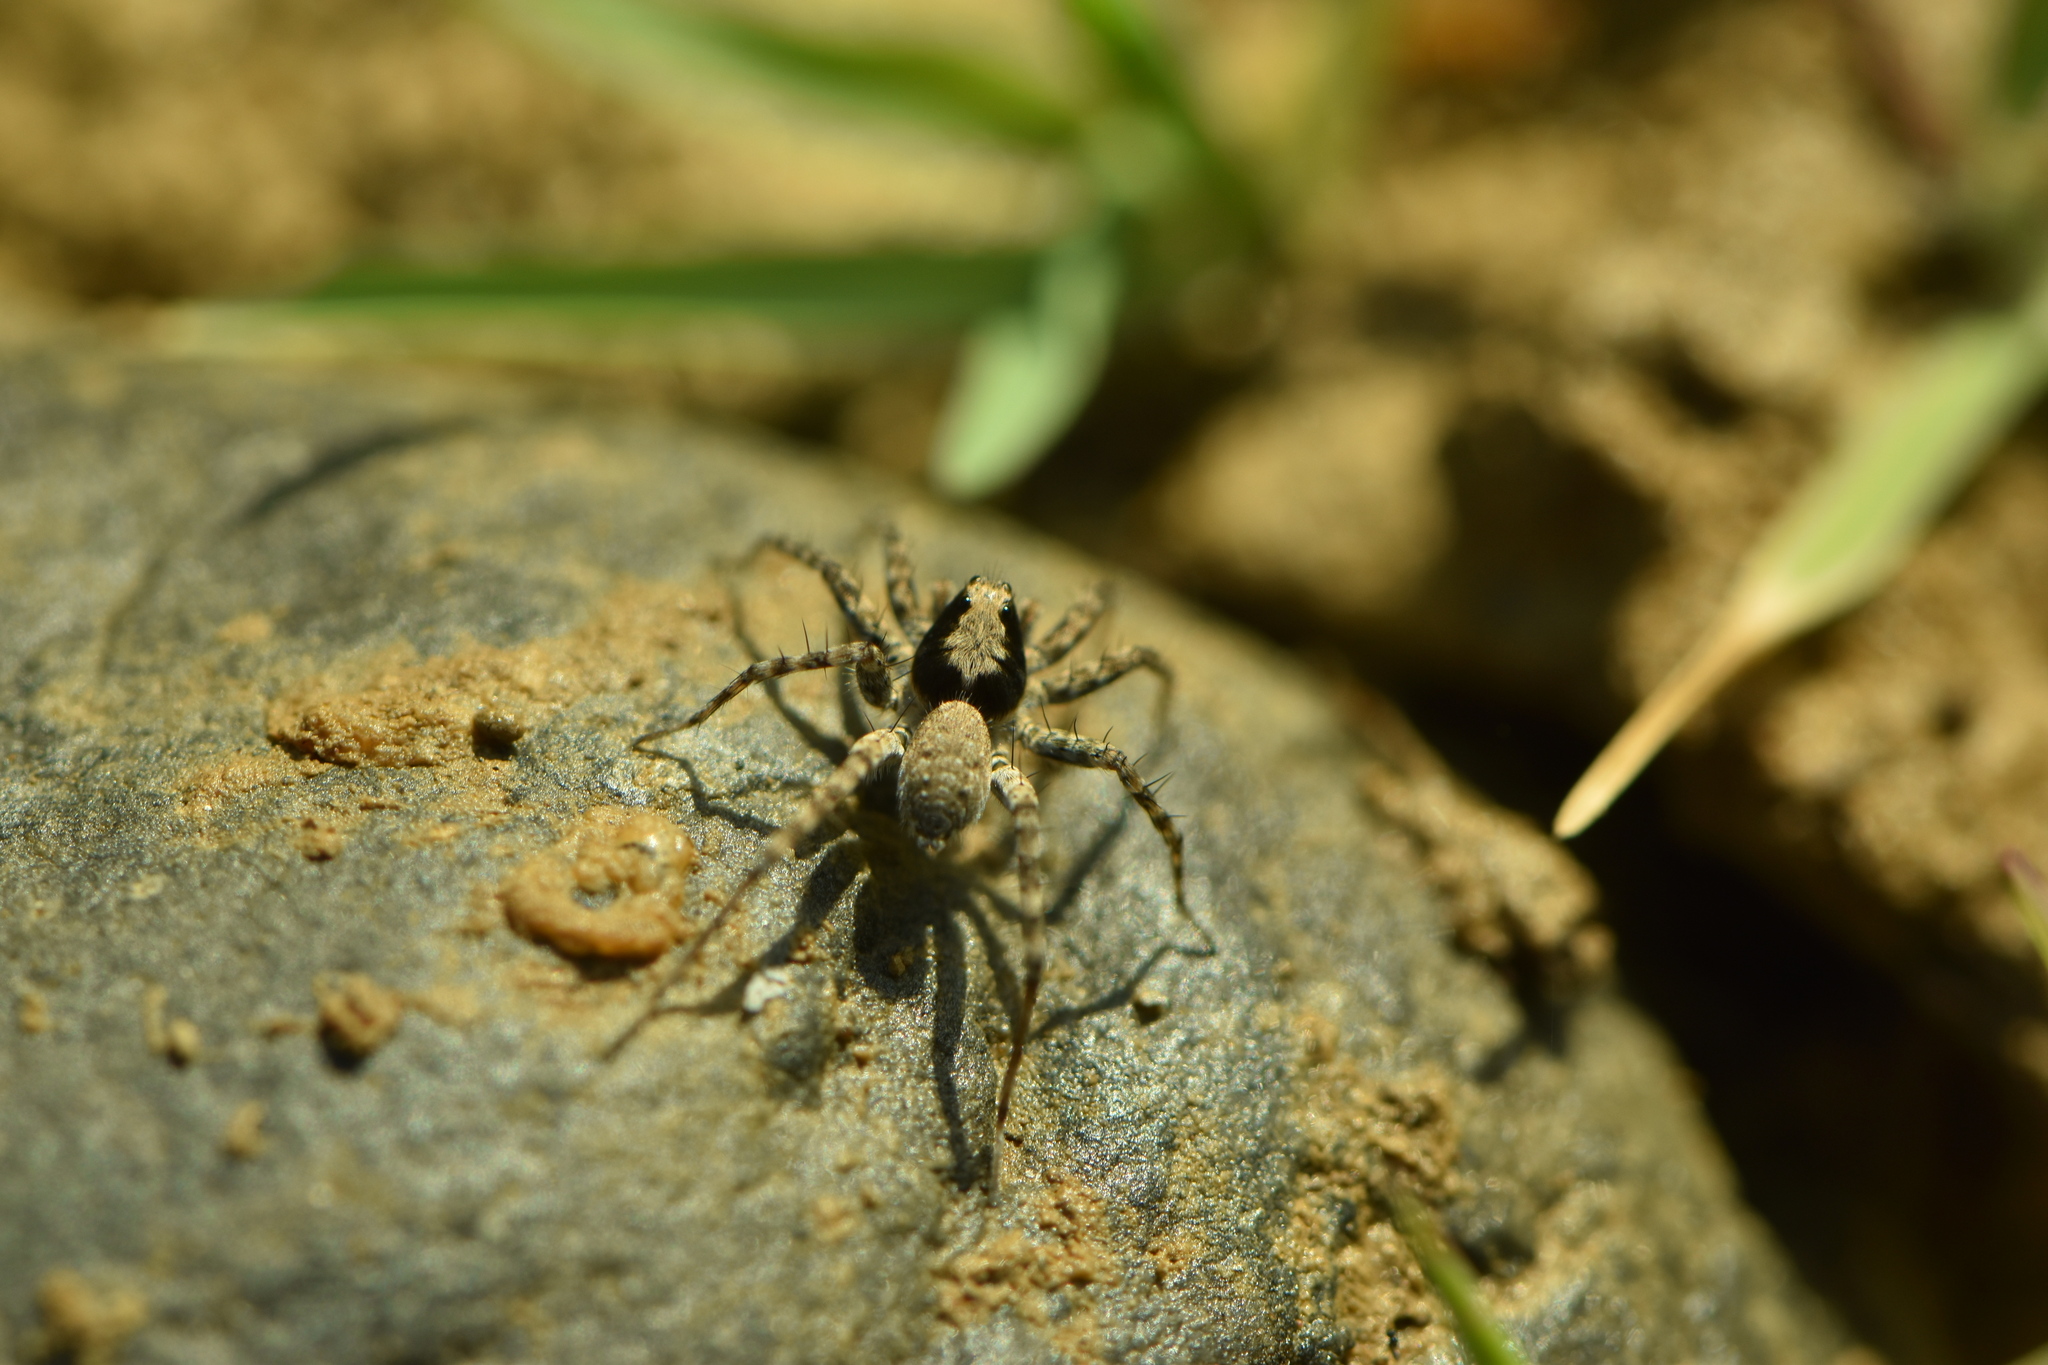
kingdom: Animalia
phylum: Arthropoda
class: Arachnida
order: Araneae
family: Lycosidae
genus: Wadicosa
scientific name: Wadicosa fidelis
